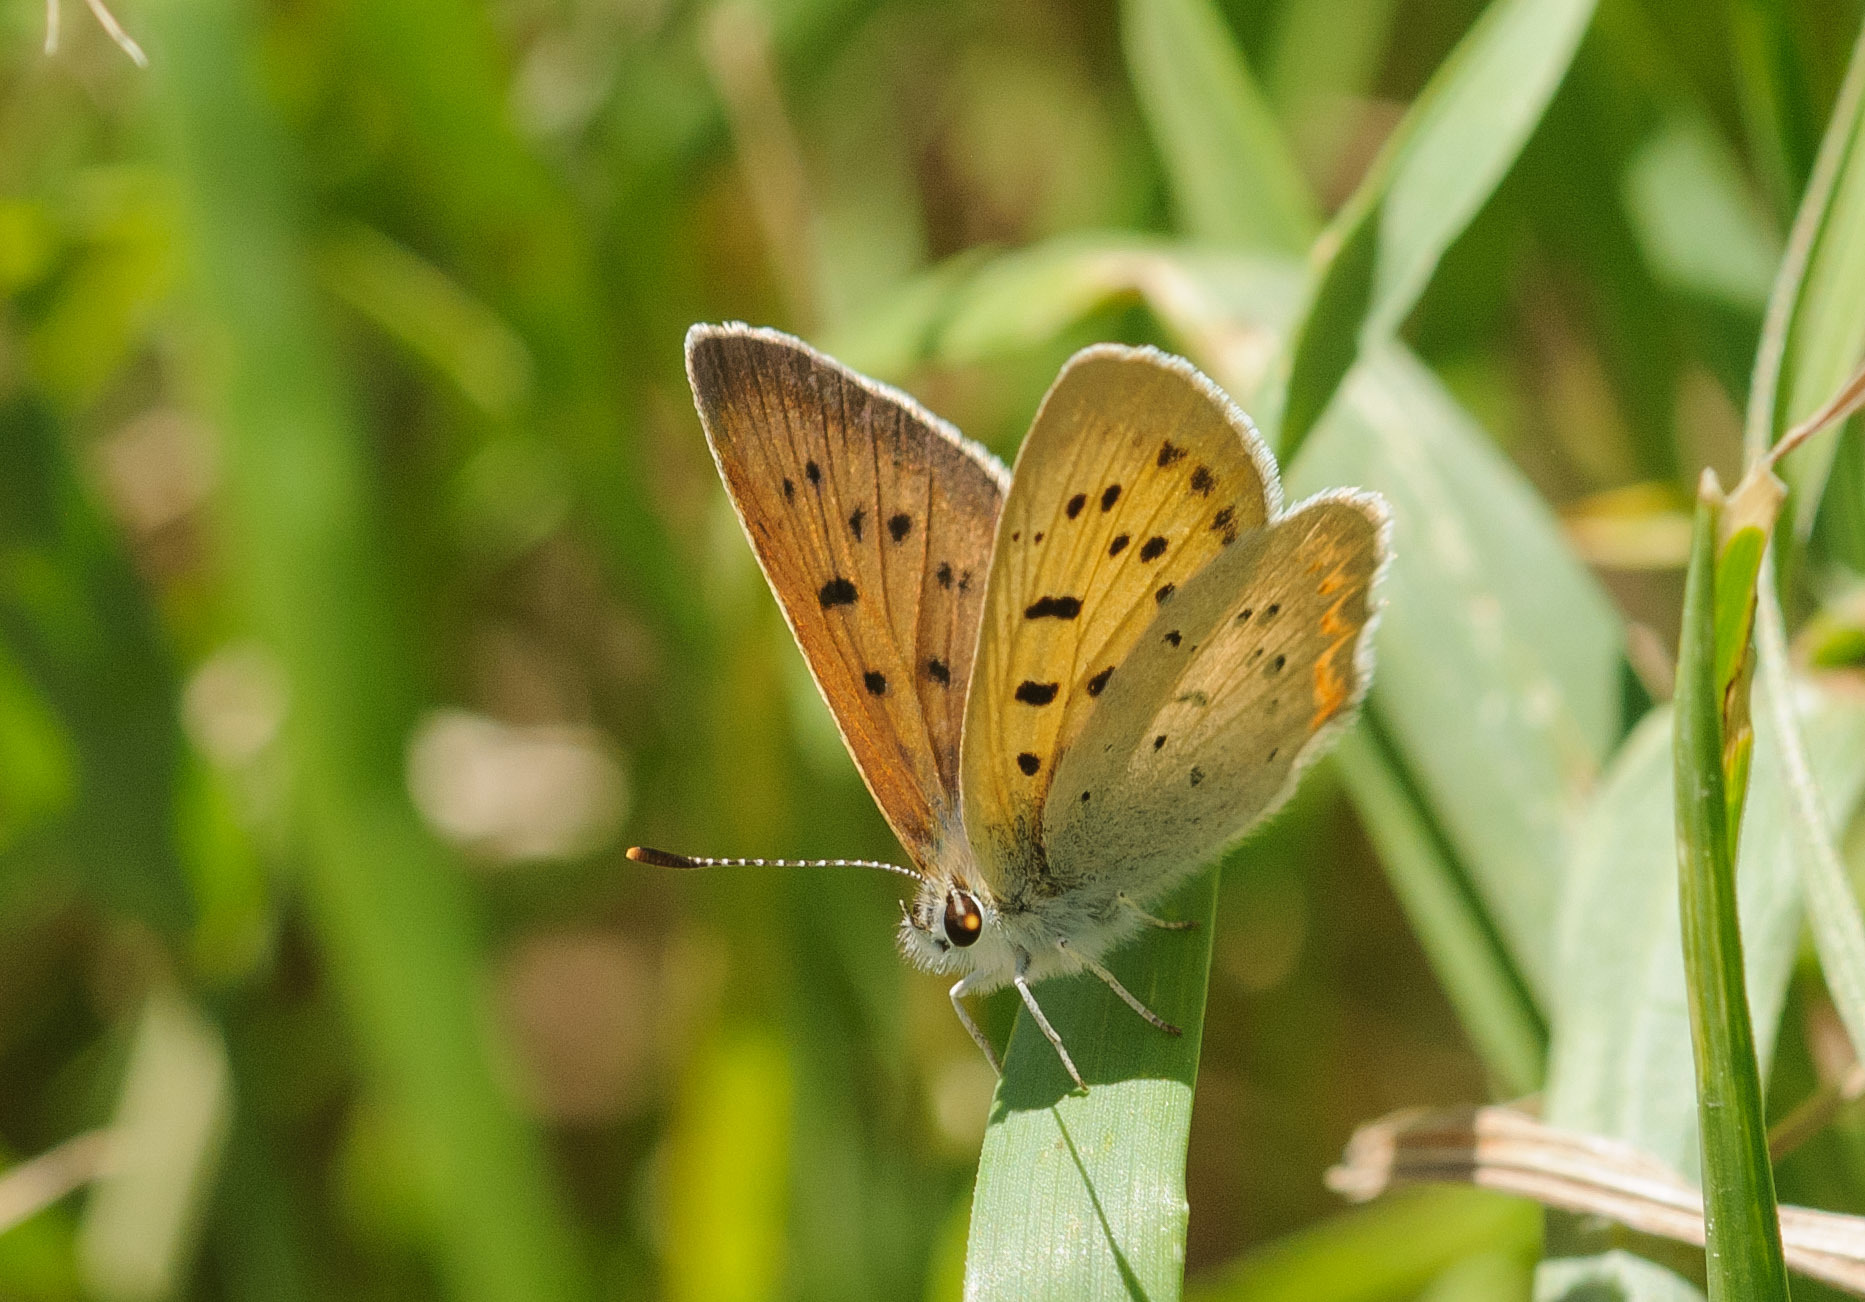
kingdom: Animalia
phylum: Arthropoda
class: Insecta
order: Lepidoptera
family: Lycaenidae
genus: Tharsalea
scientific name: Tharsalea helloides
